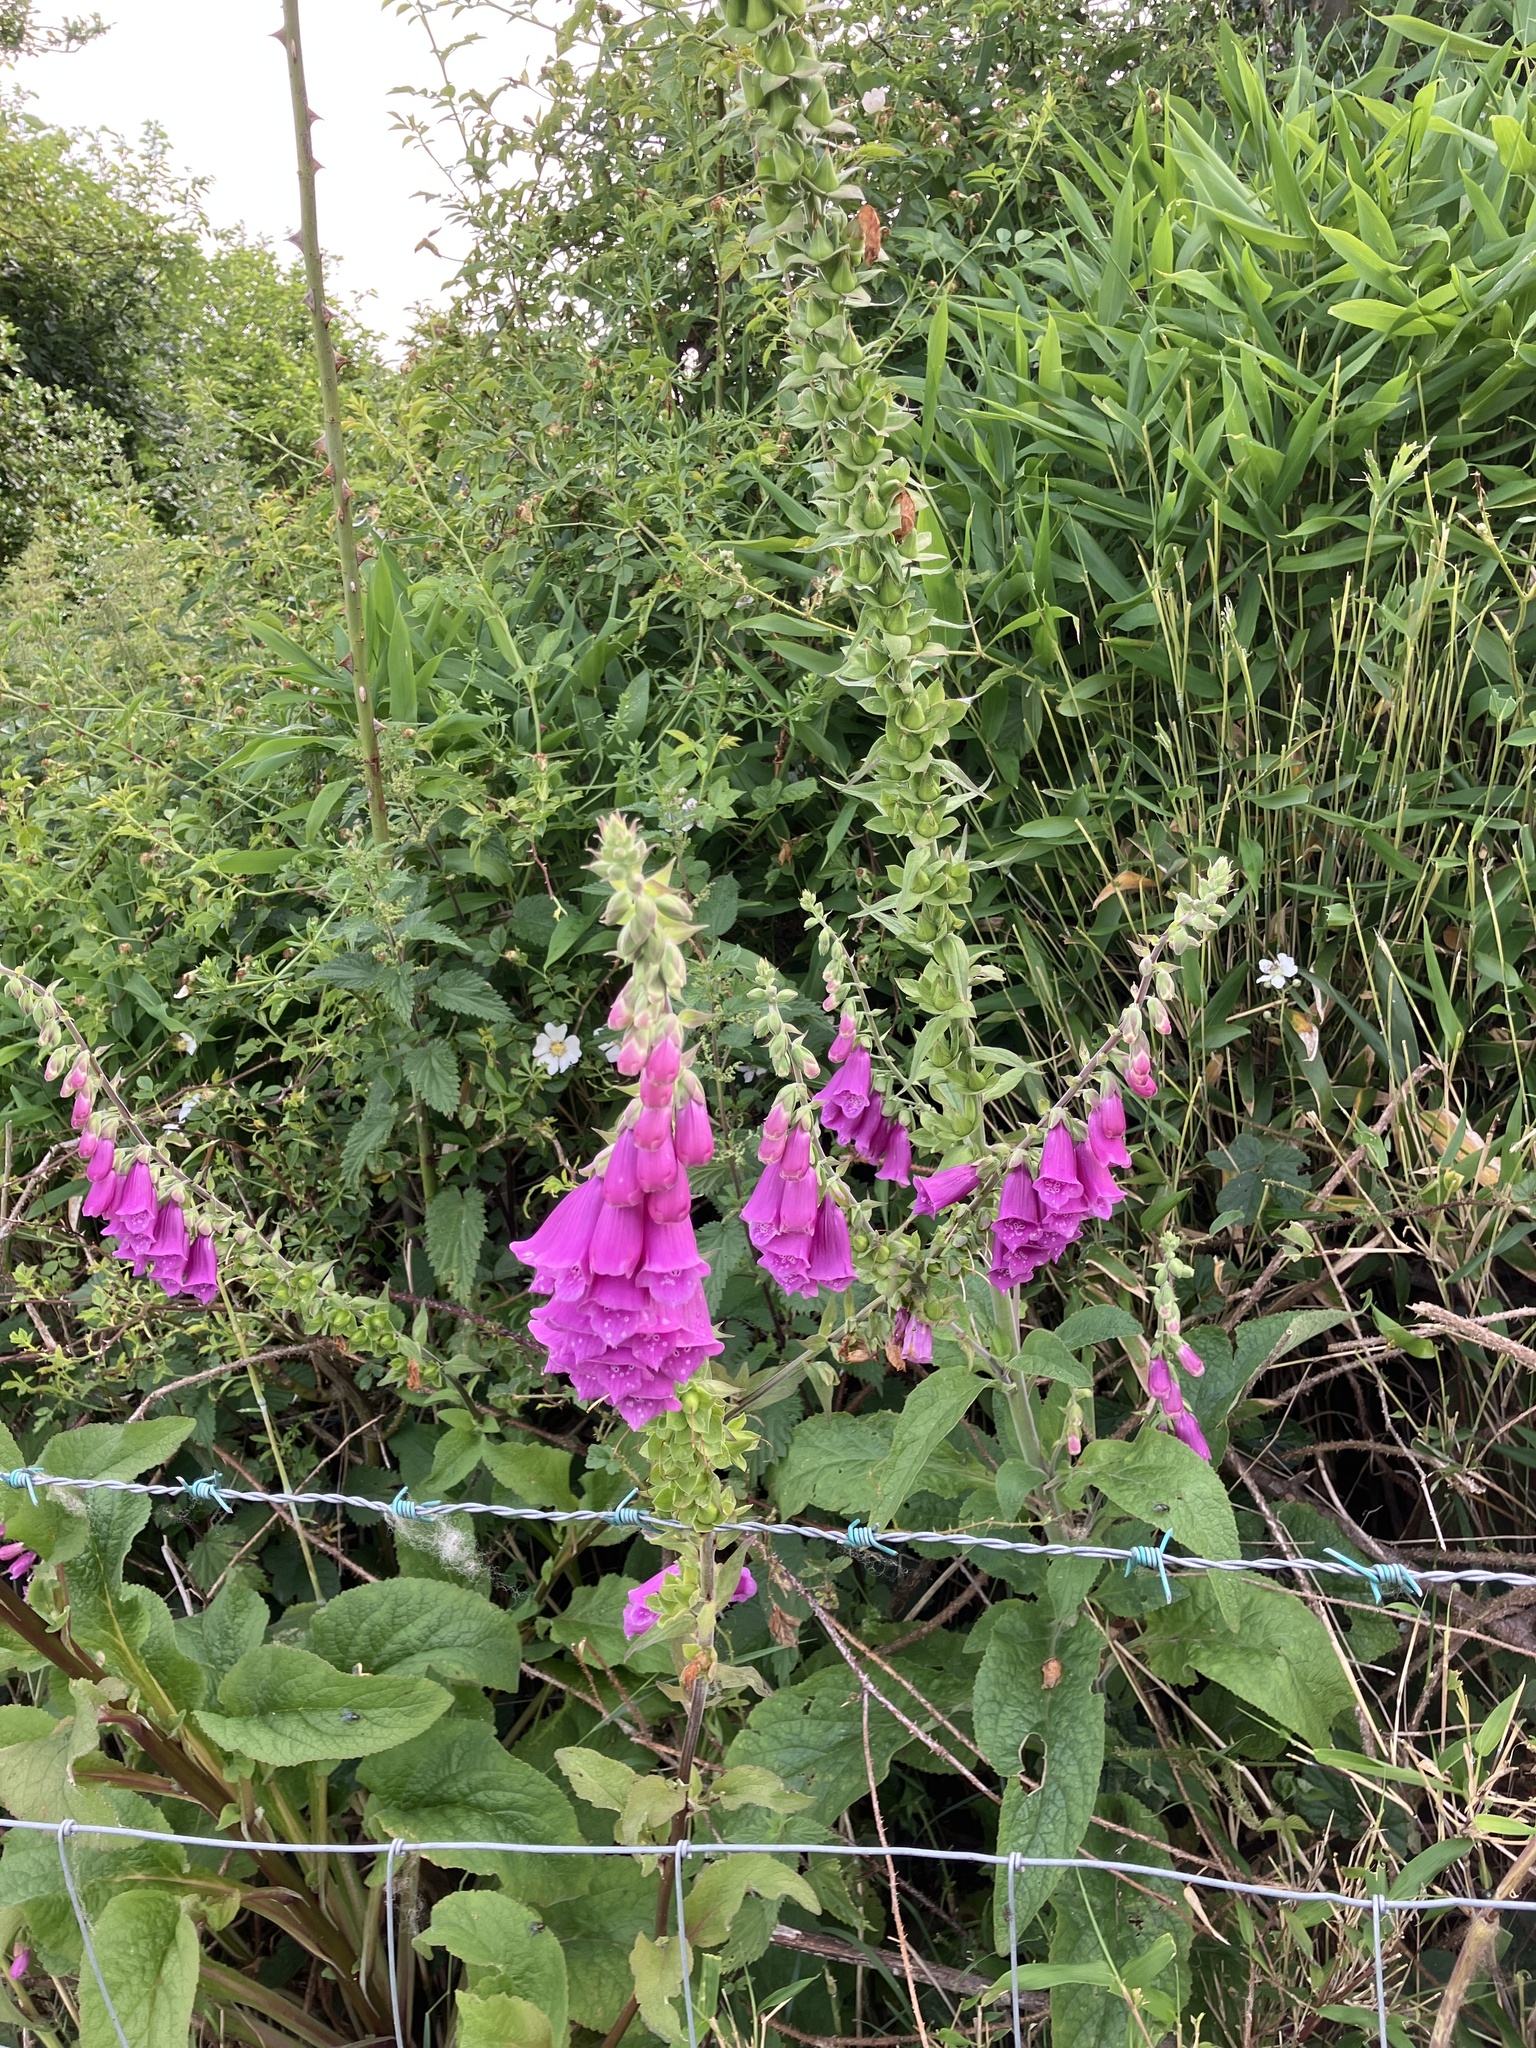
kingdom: Plantae
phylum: Tracheophyta
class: Magnoliopsida
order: Lamiales
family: Plantaginaceae
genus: Digitalis
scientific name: Digitalis purpurea
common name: Foxglove
